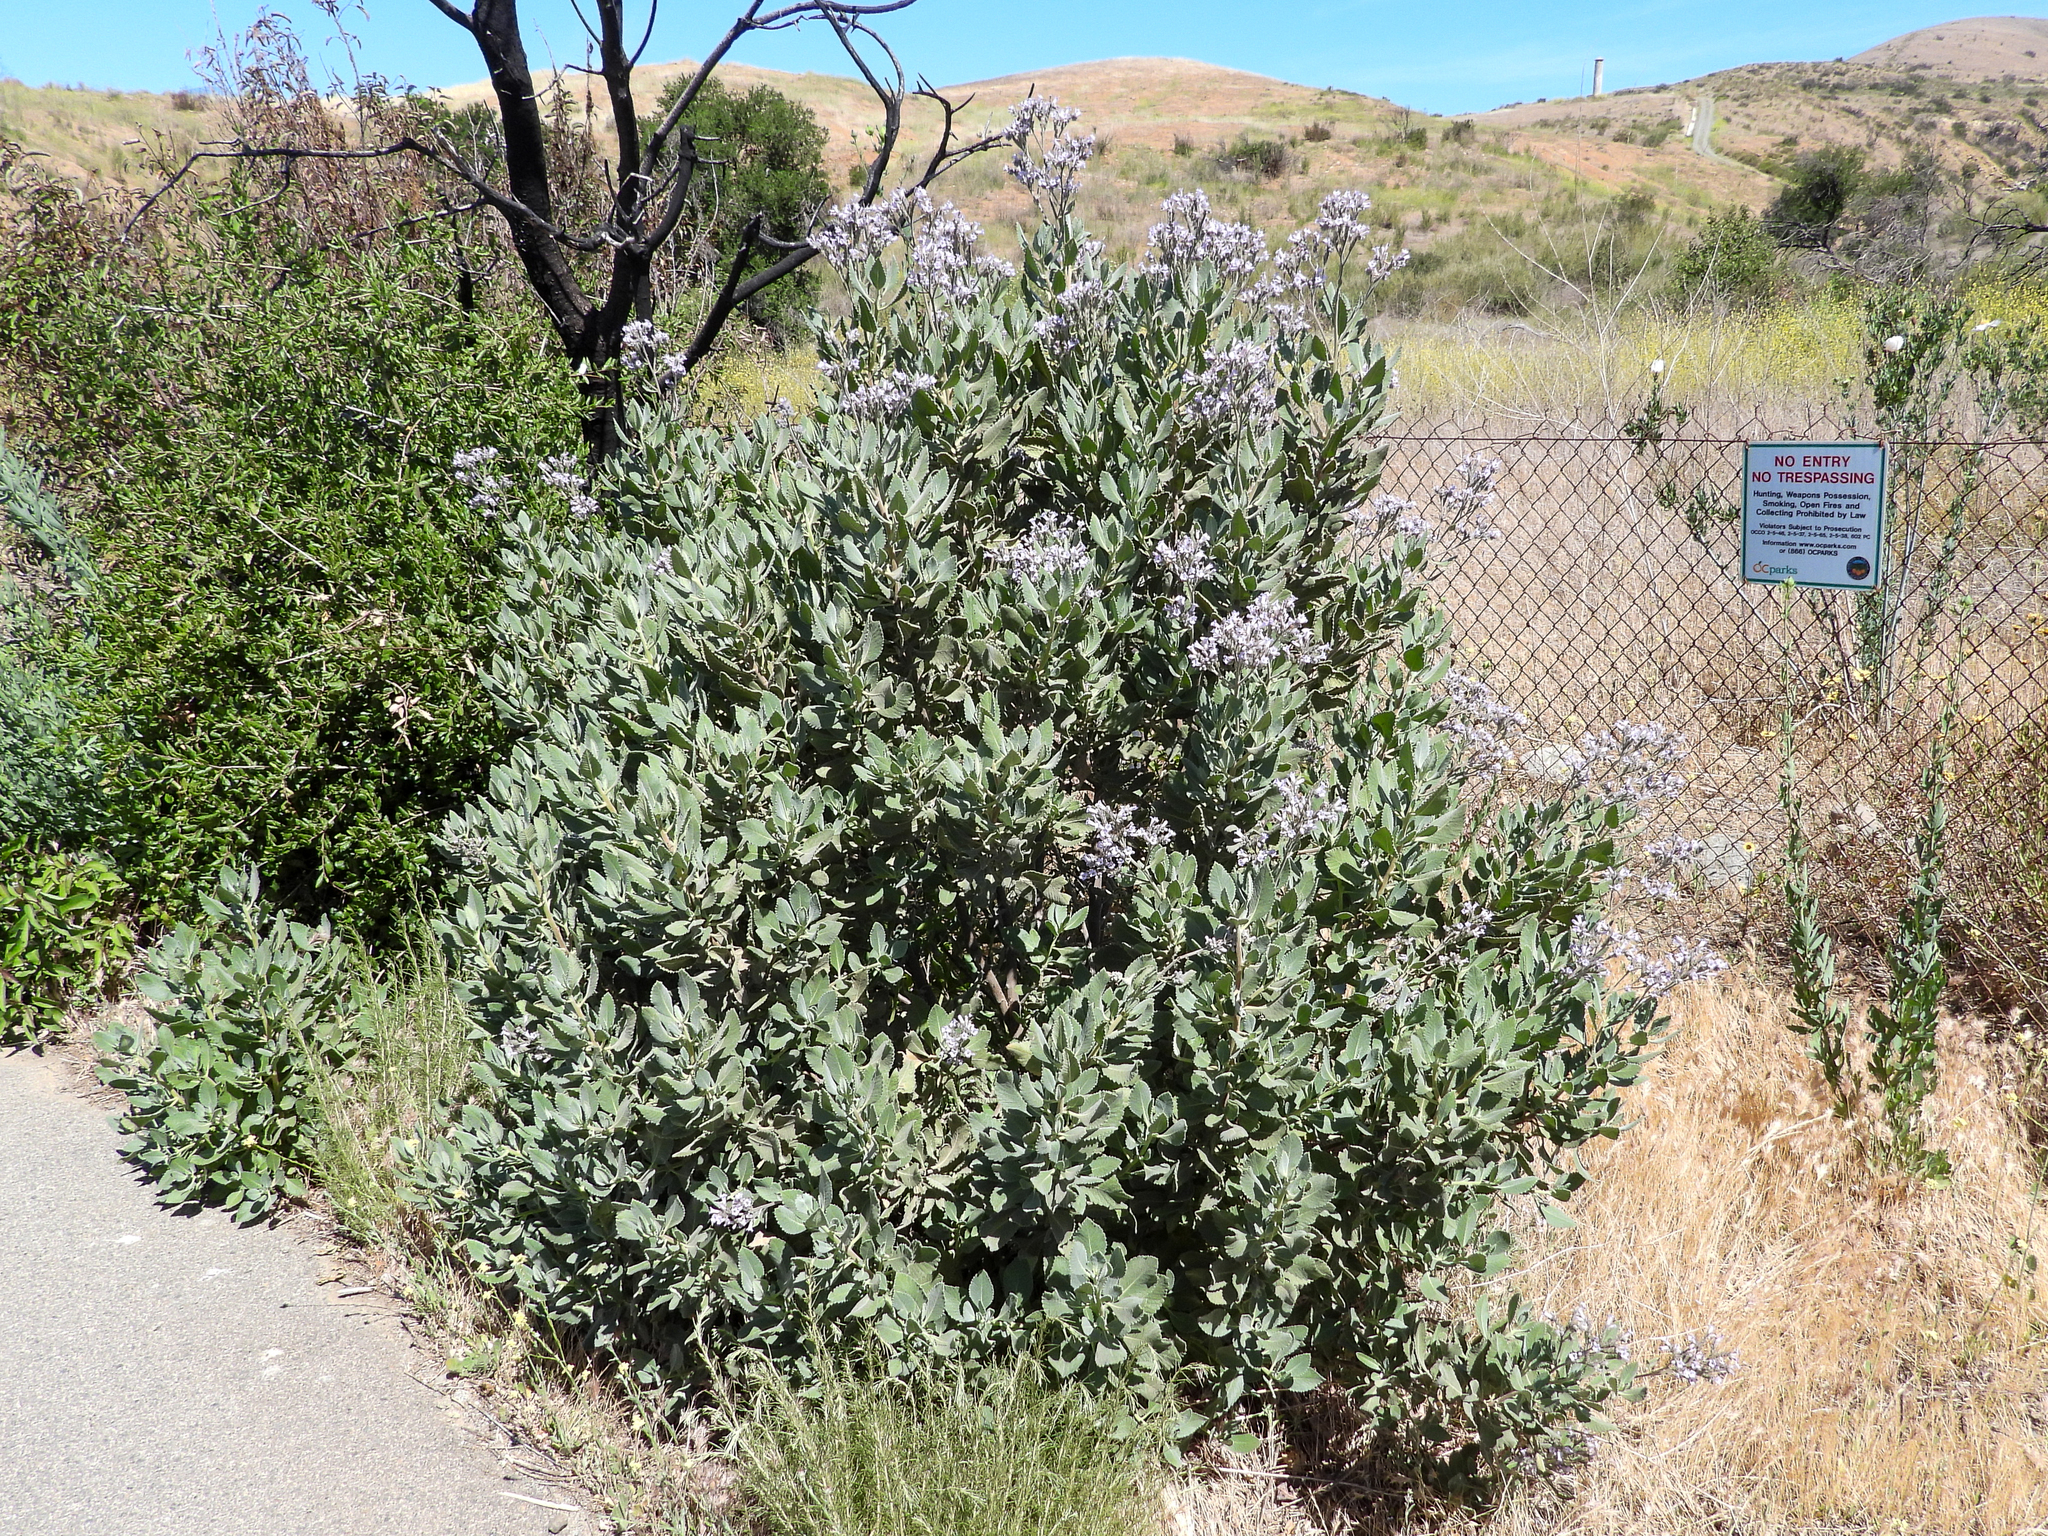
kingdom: Plantae
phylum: Tracheophyta
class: Magnoliopsida
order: Boraginales
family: Namaceae
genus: Eriodictyon
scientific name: Eriodictyon crassifolium
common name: Thick-leaf yerba-santa
